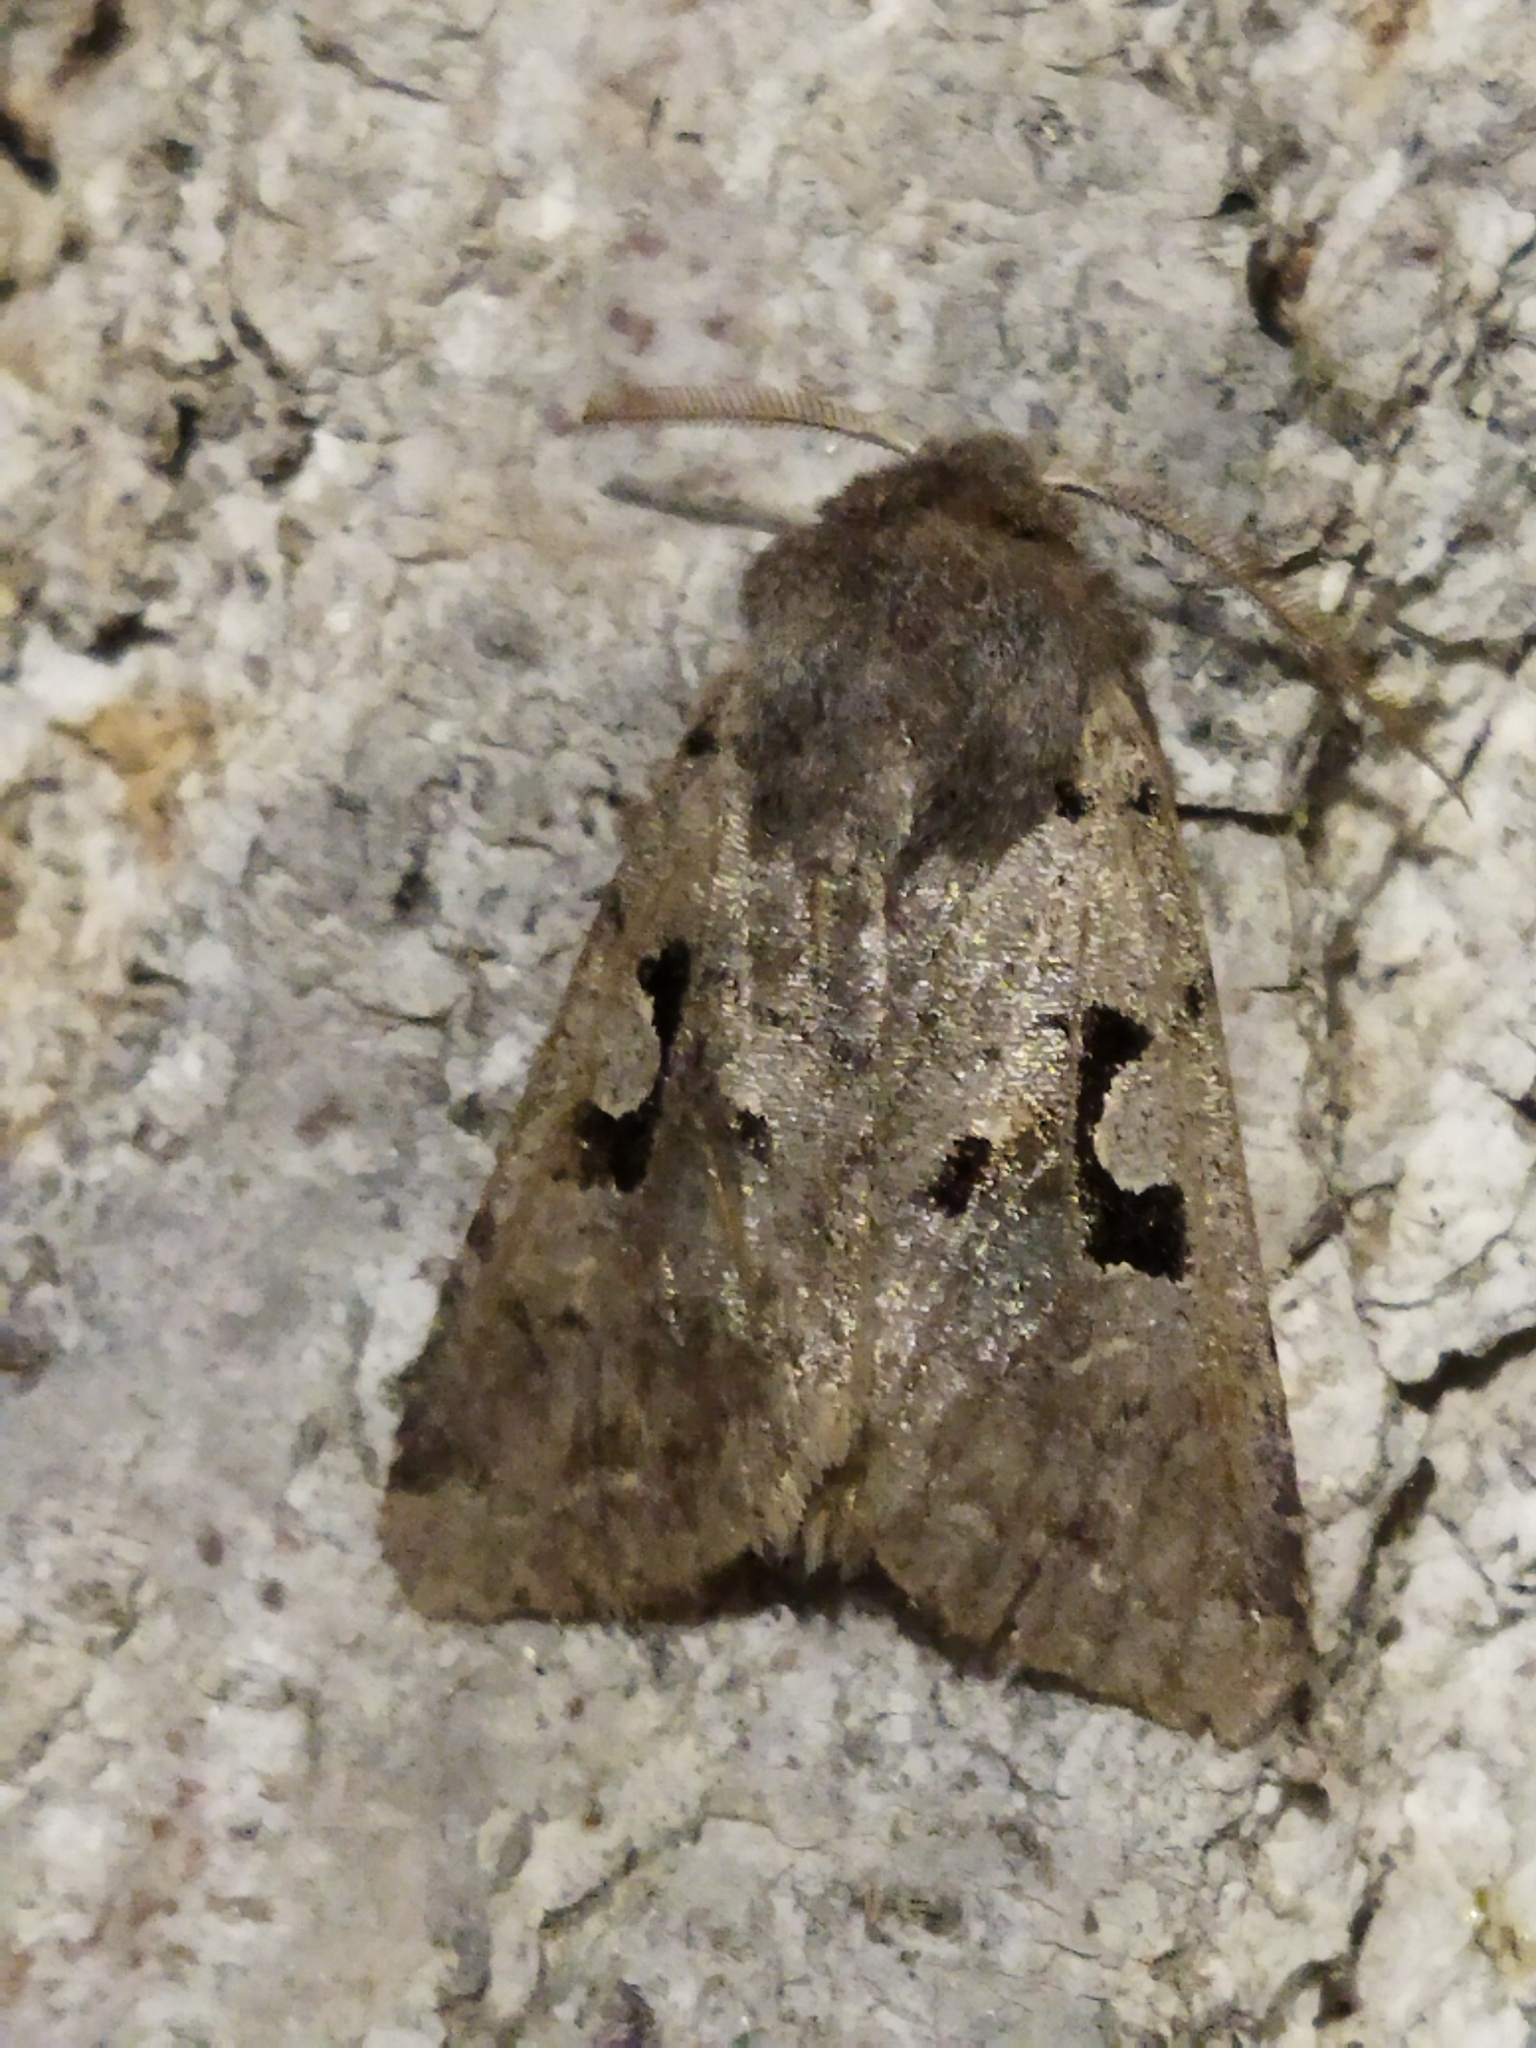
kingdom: Animalia
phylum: Arthropoda
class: Insecta
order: Lepidoptera
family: Noctuidae
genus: Orthosia
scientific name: Orthosia gothica
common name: Hebrew character
